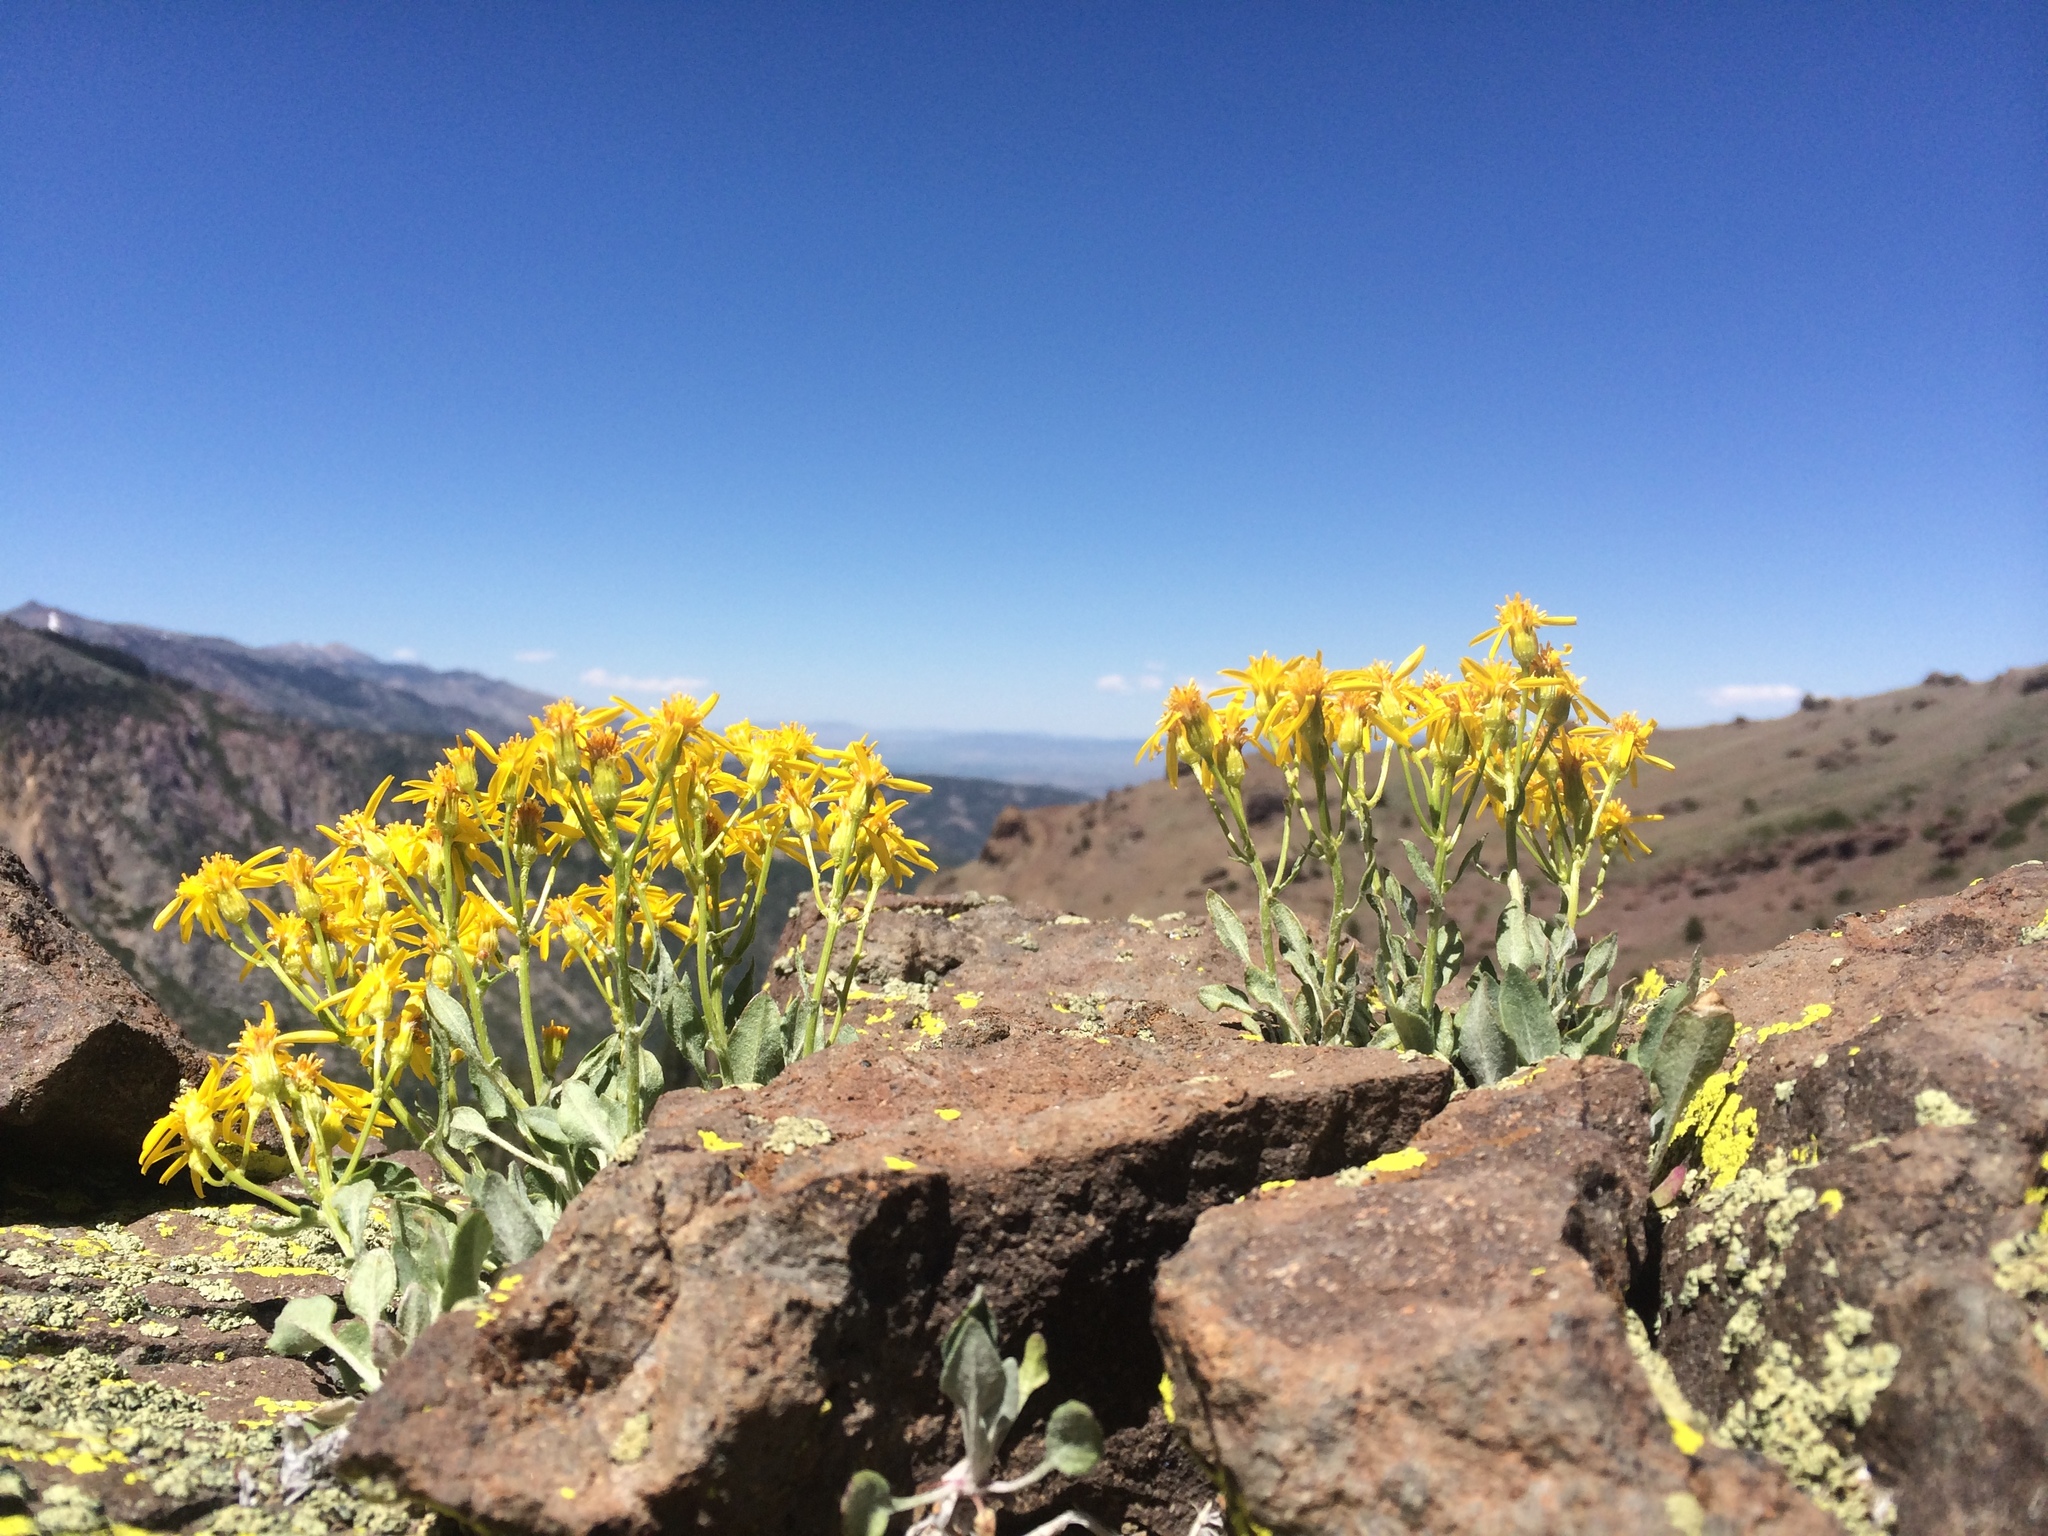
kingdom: Plantae
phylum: Tracheophyta
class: Magnoliopsida
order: Asterales
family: Asteraceae
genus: Packera
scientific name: Packera cana
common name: Woolly groundsel
